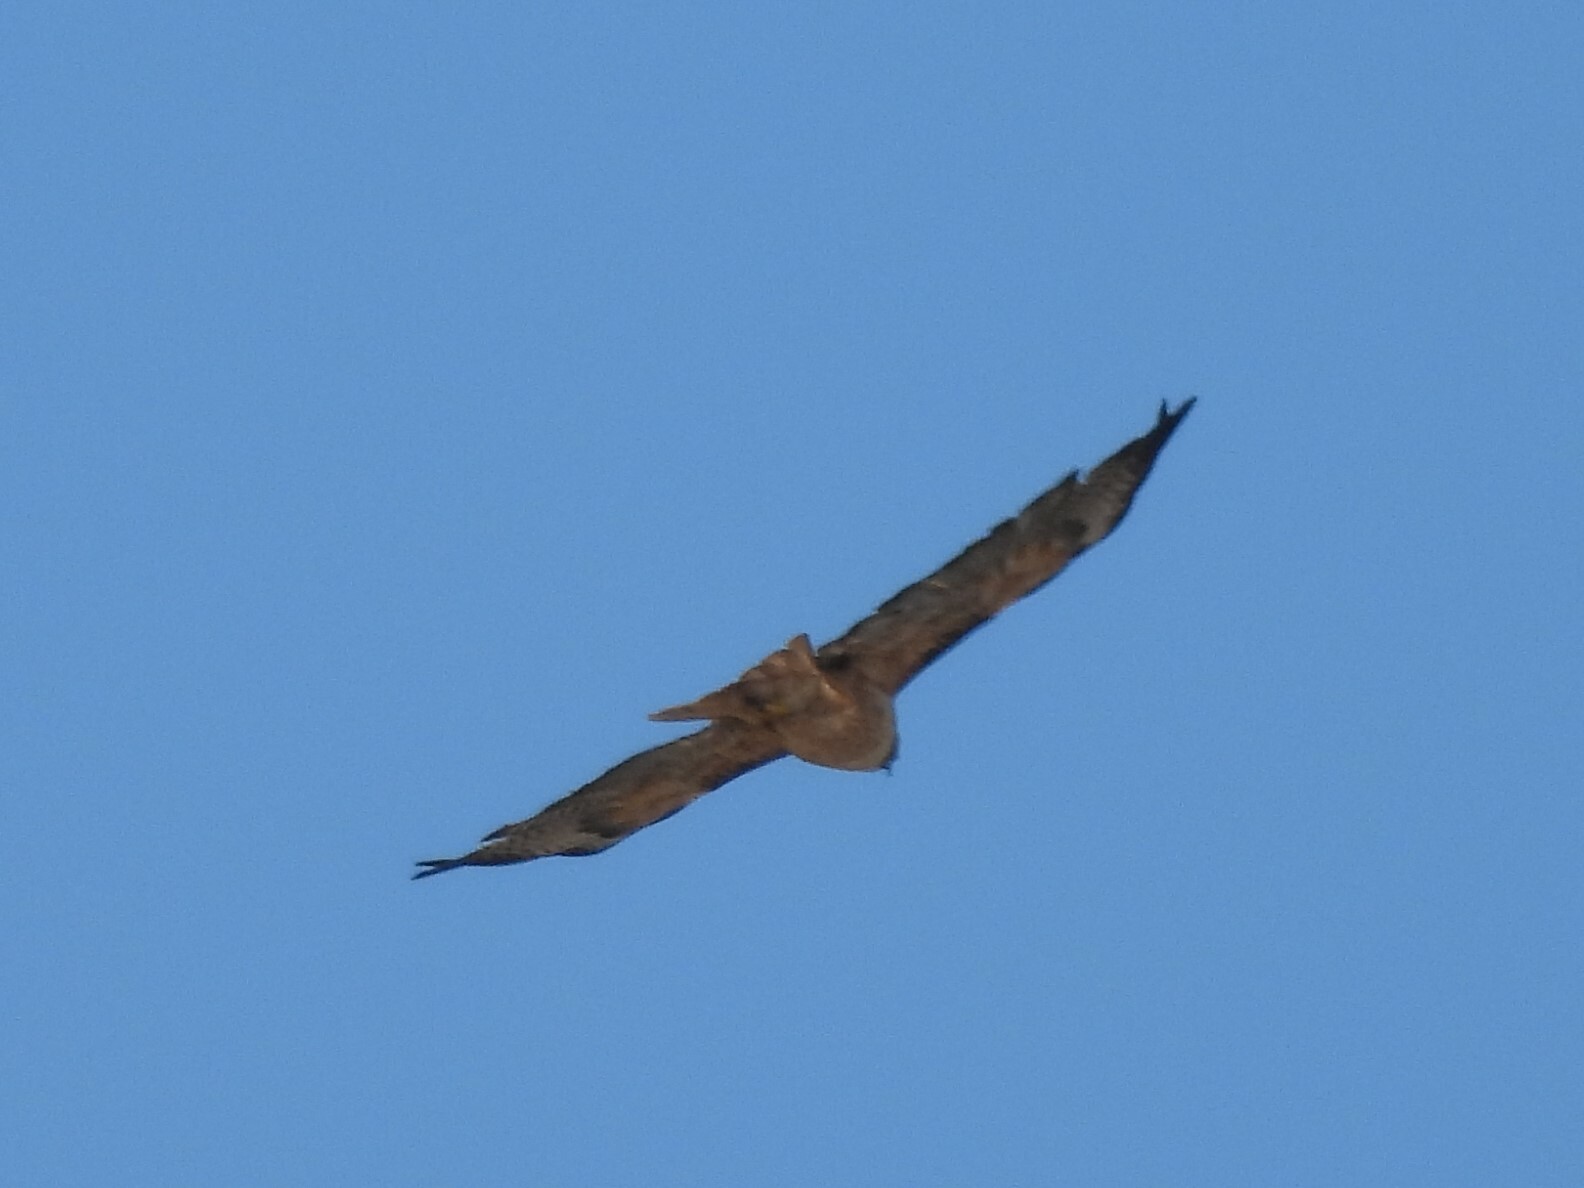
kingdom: Animalia
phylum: Chordata
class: Aves
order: Accipitriformes
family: Accipitridae
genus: Buteo
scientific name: Buteo jamaicensis
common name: Red-tailed hawk
